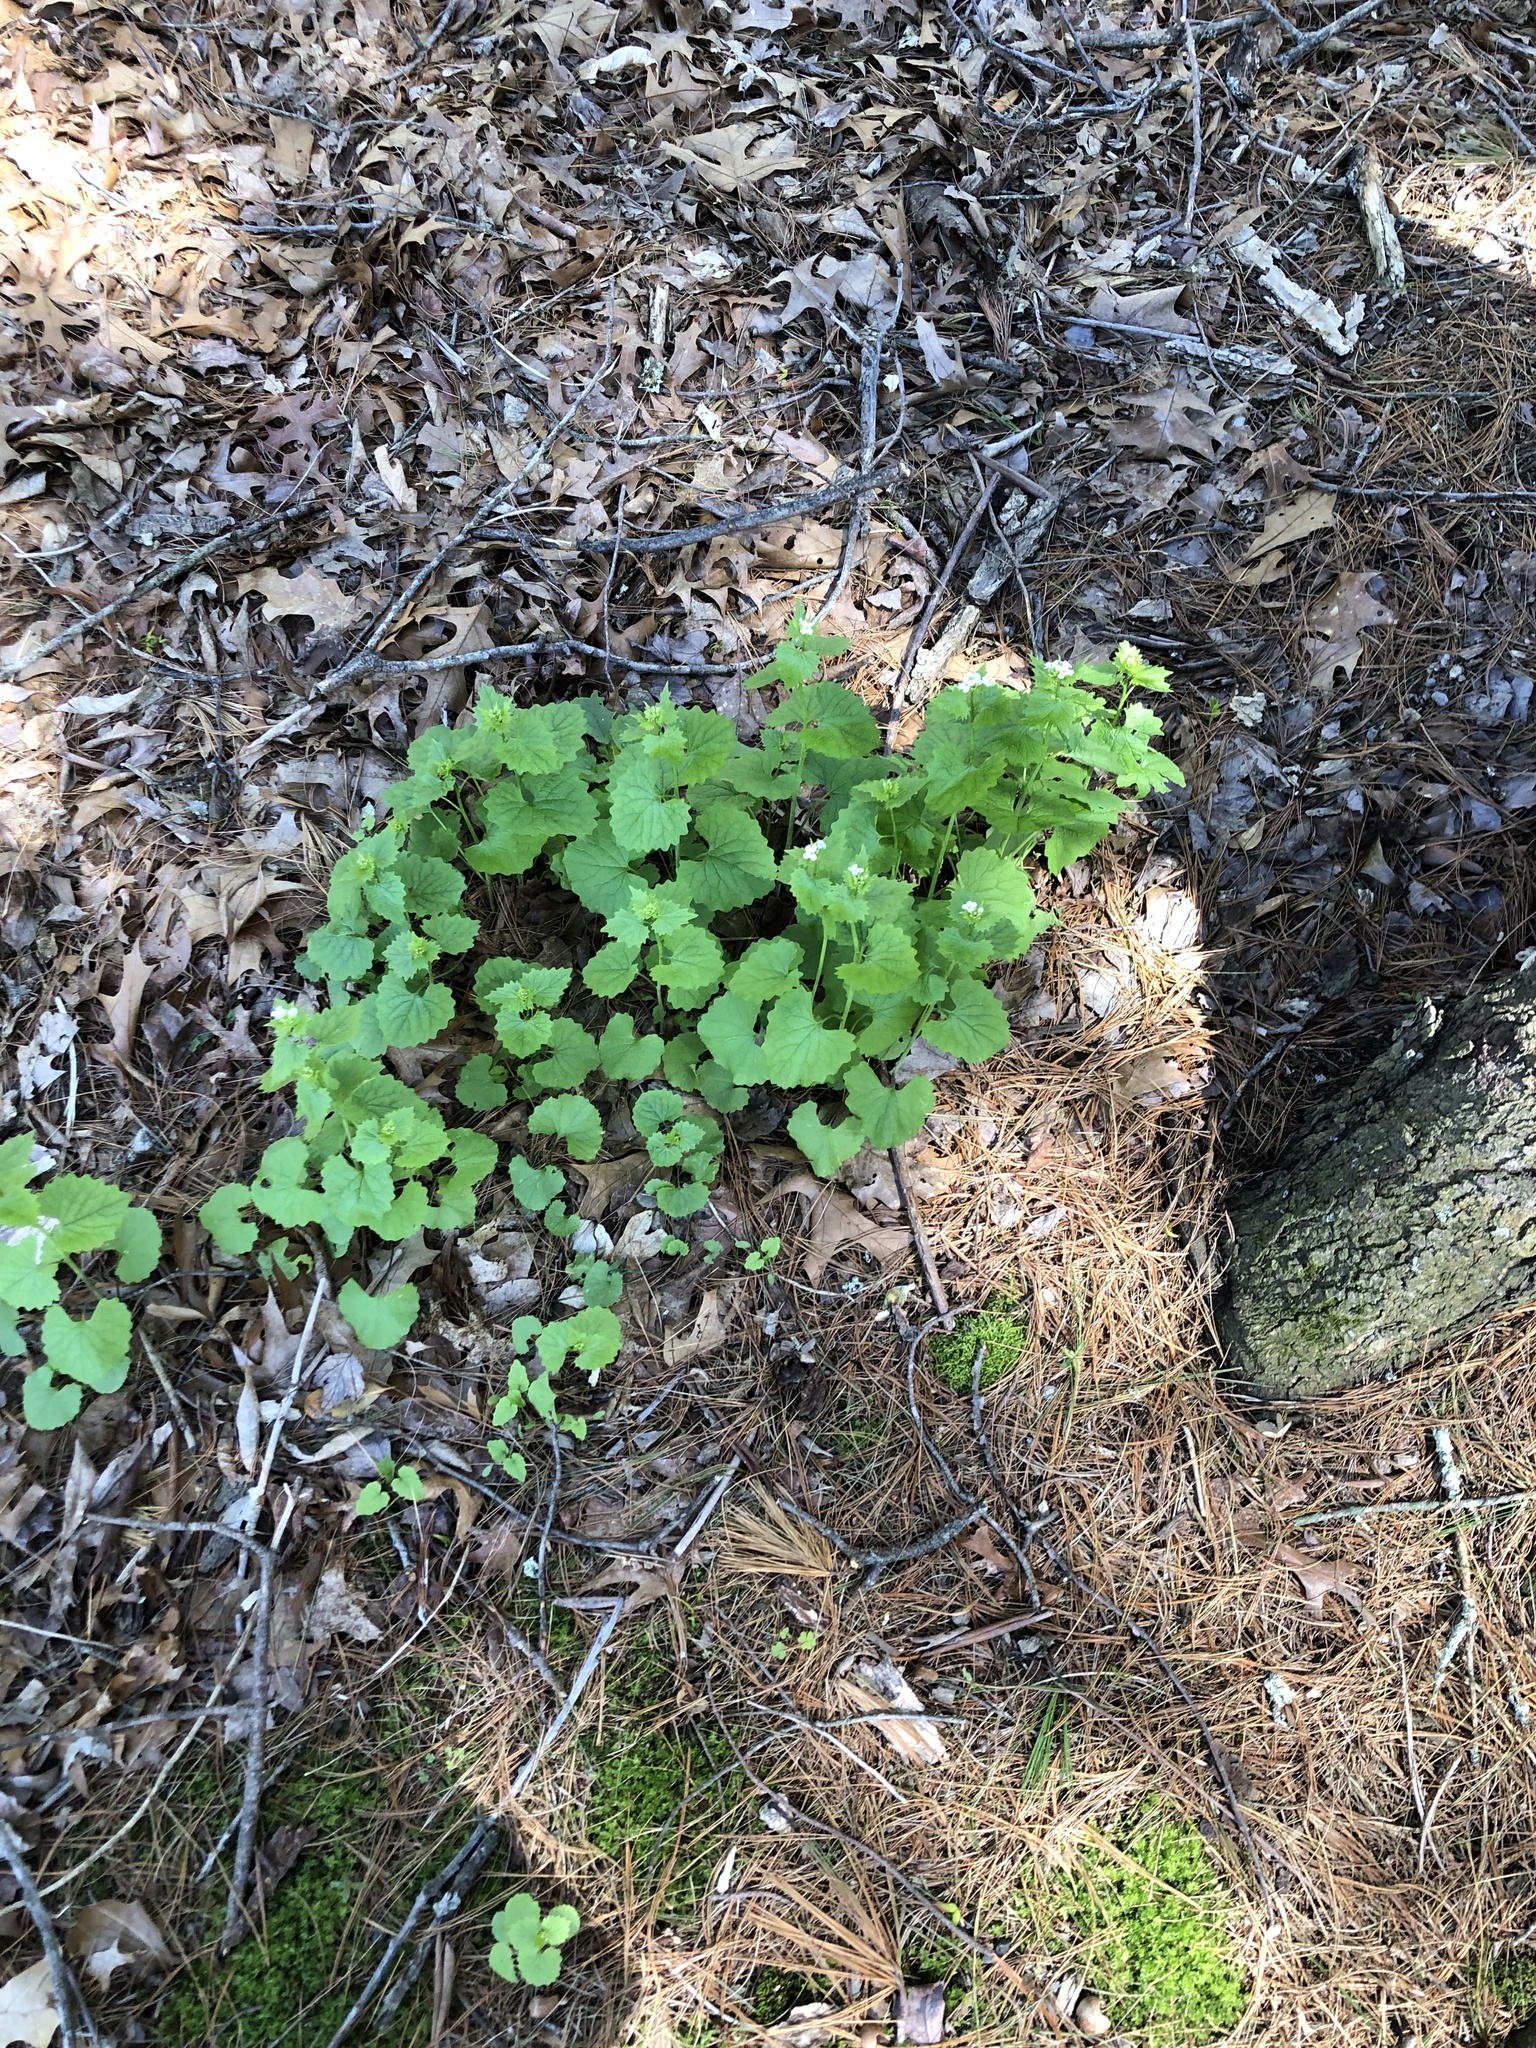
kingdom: Plantae
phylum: Tracheophyta
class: Magnoliopsida
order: Brassicales
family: Brassicaceae
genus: Alliaria
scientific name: Alliaria petiolata
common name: Garlic mustard
